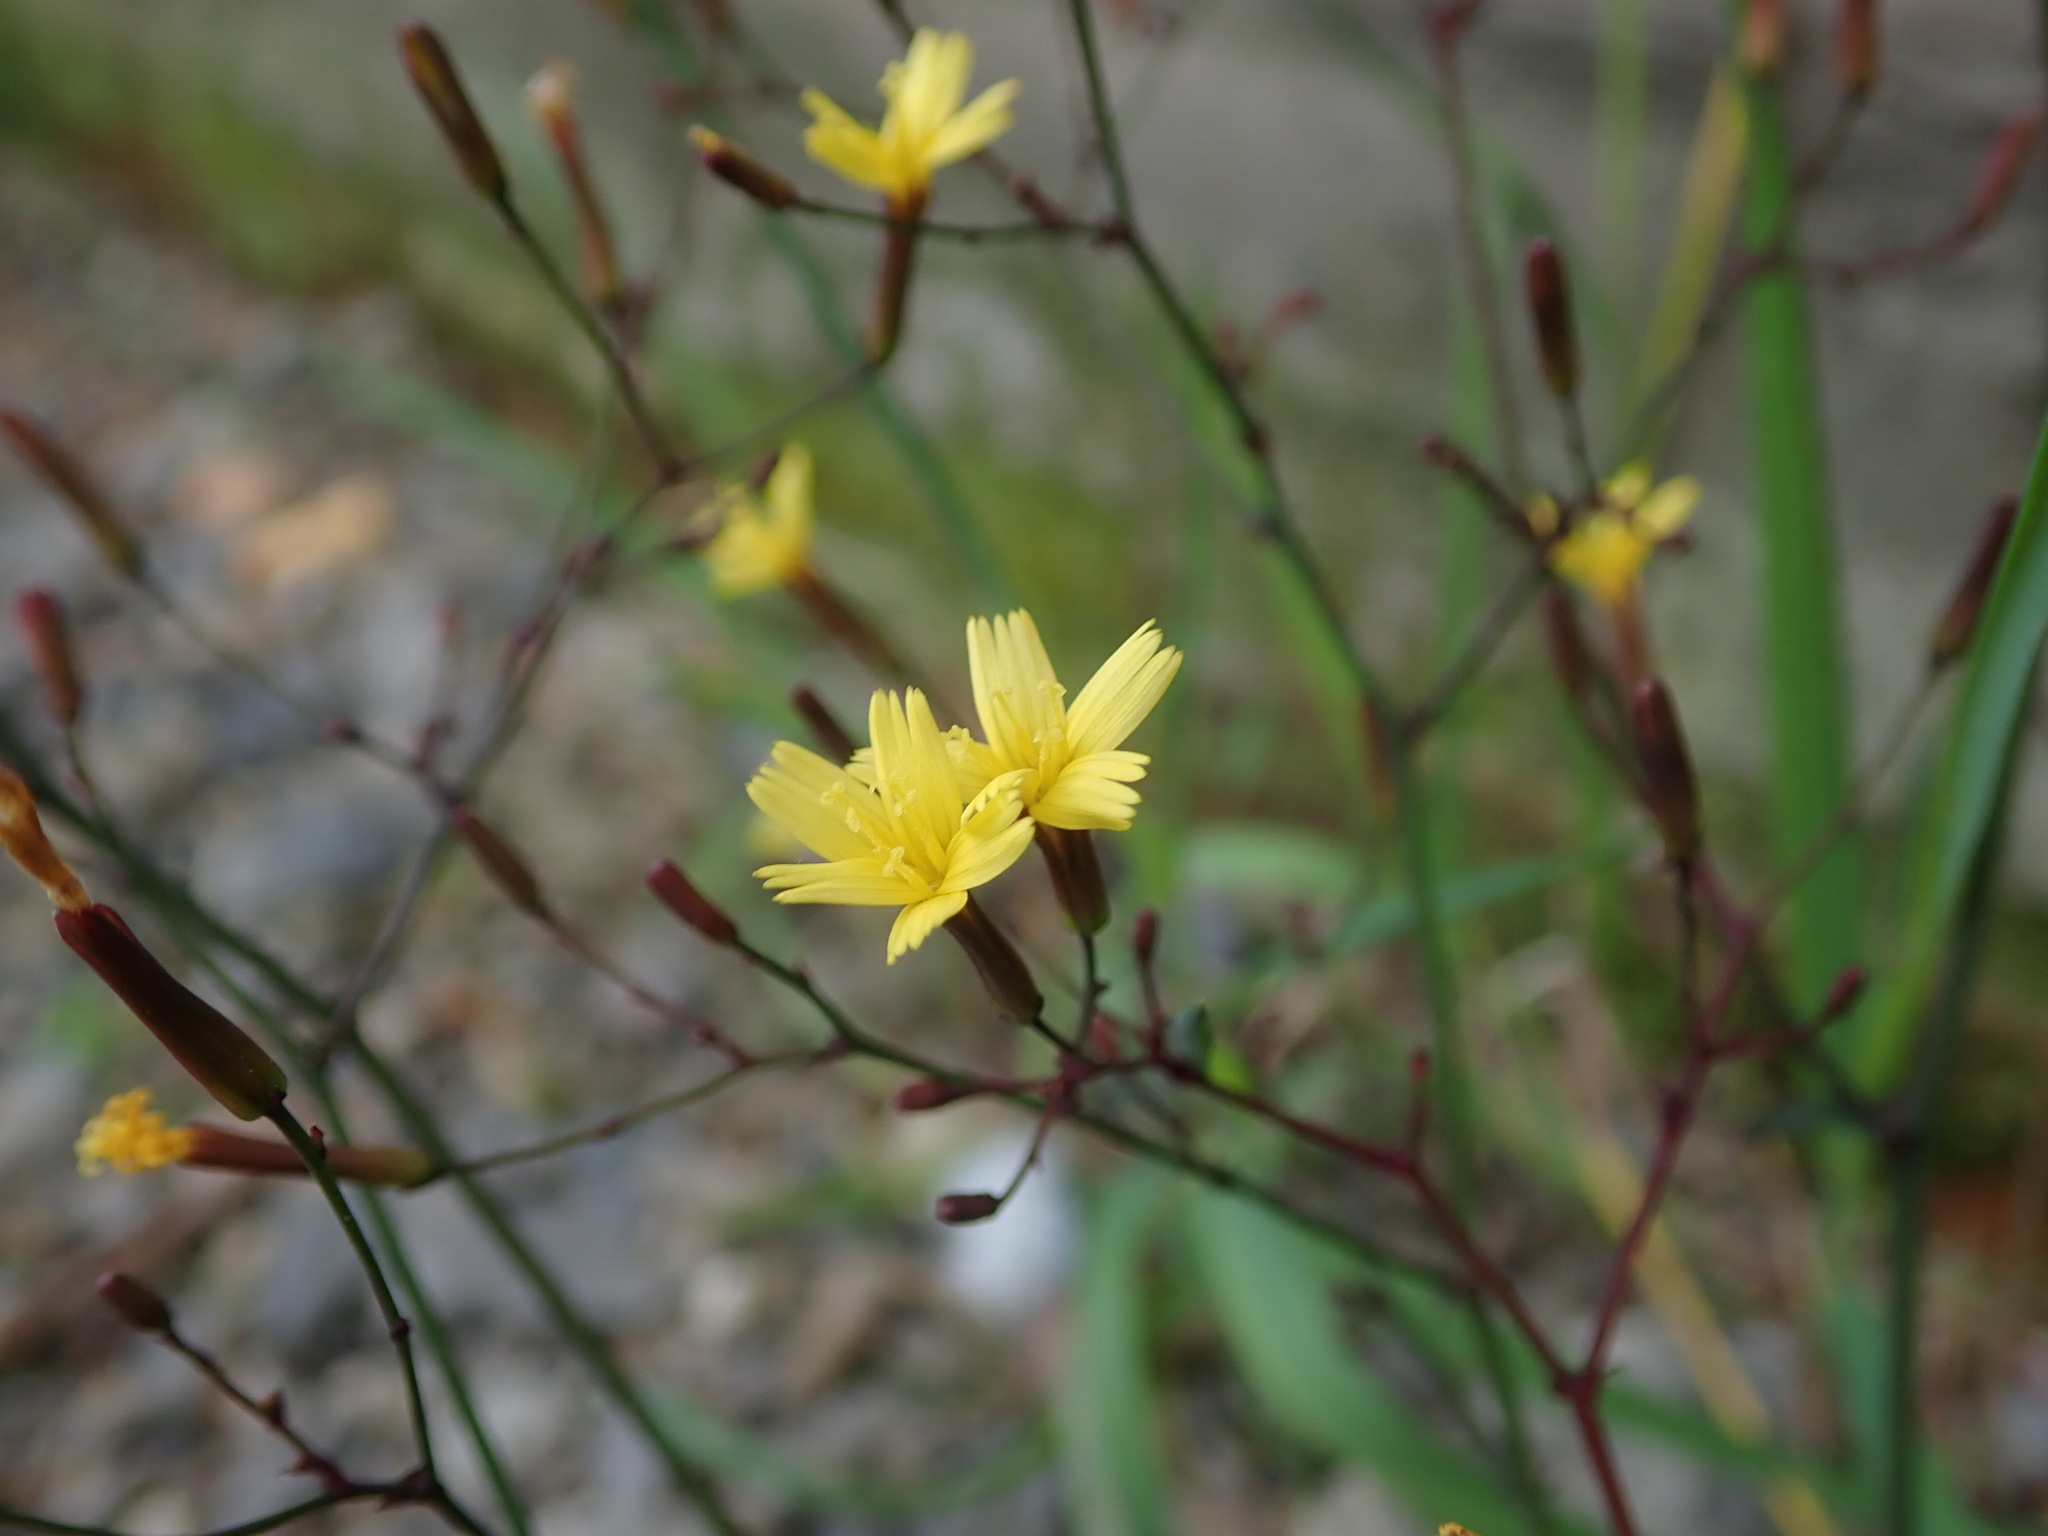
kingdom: Plantae
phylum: Tracheophyta
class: Magnoliopsida
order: Asterales
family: Asteraceae
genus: Mycelis
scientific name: Mycelis muralis
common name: Wall lettuce
